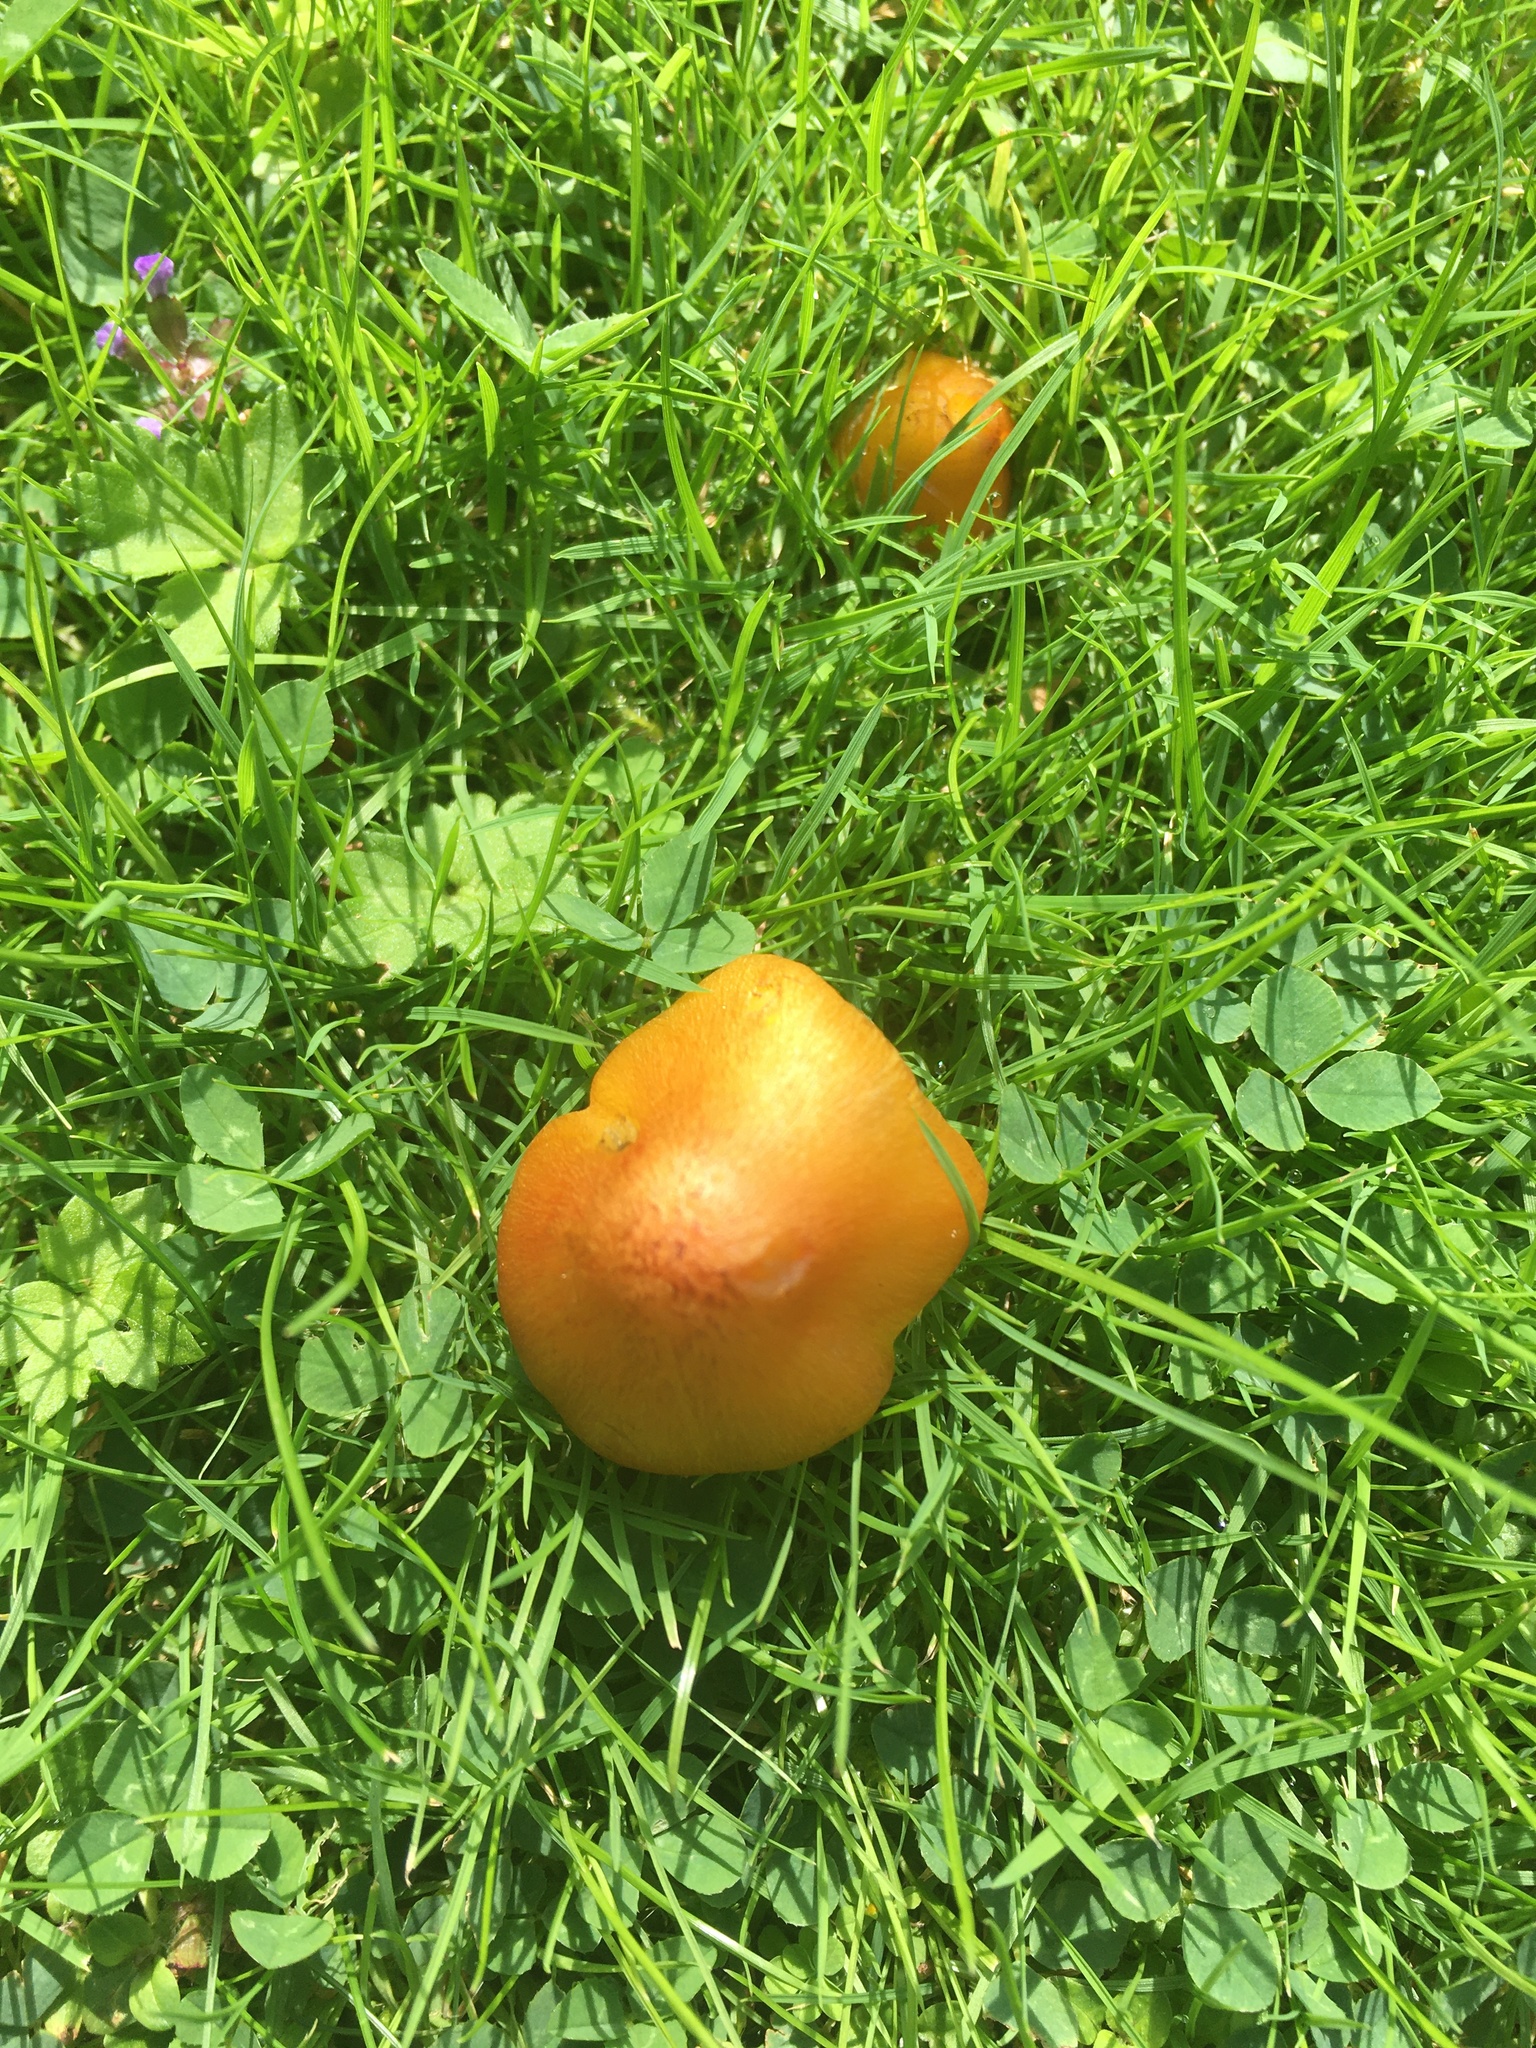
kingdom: Fungi
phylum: Basidiomycota
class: Agaricomycetes
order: Agaricales
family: Hygrophoraceae
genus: Hygrocybe
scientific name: Hygrocybe conica
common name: Blackening wax-cap
